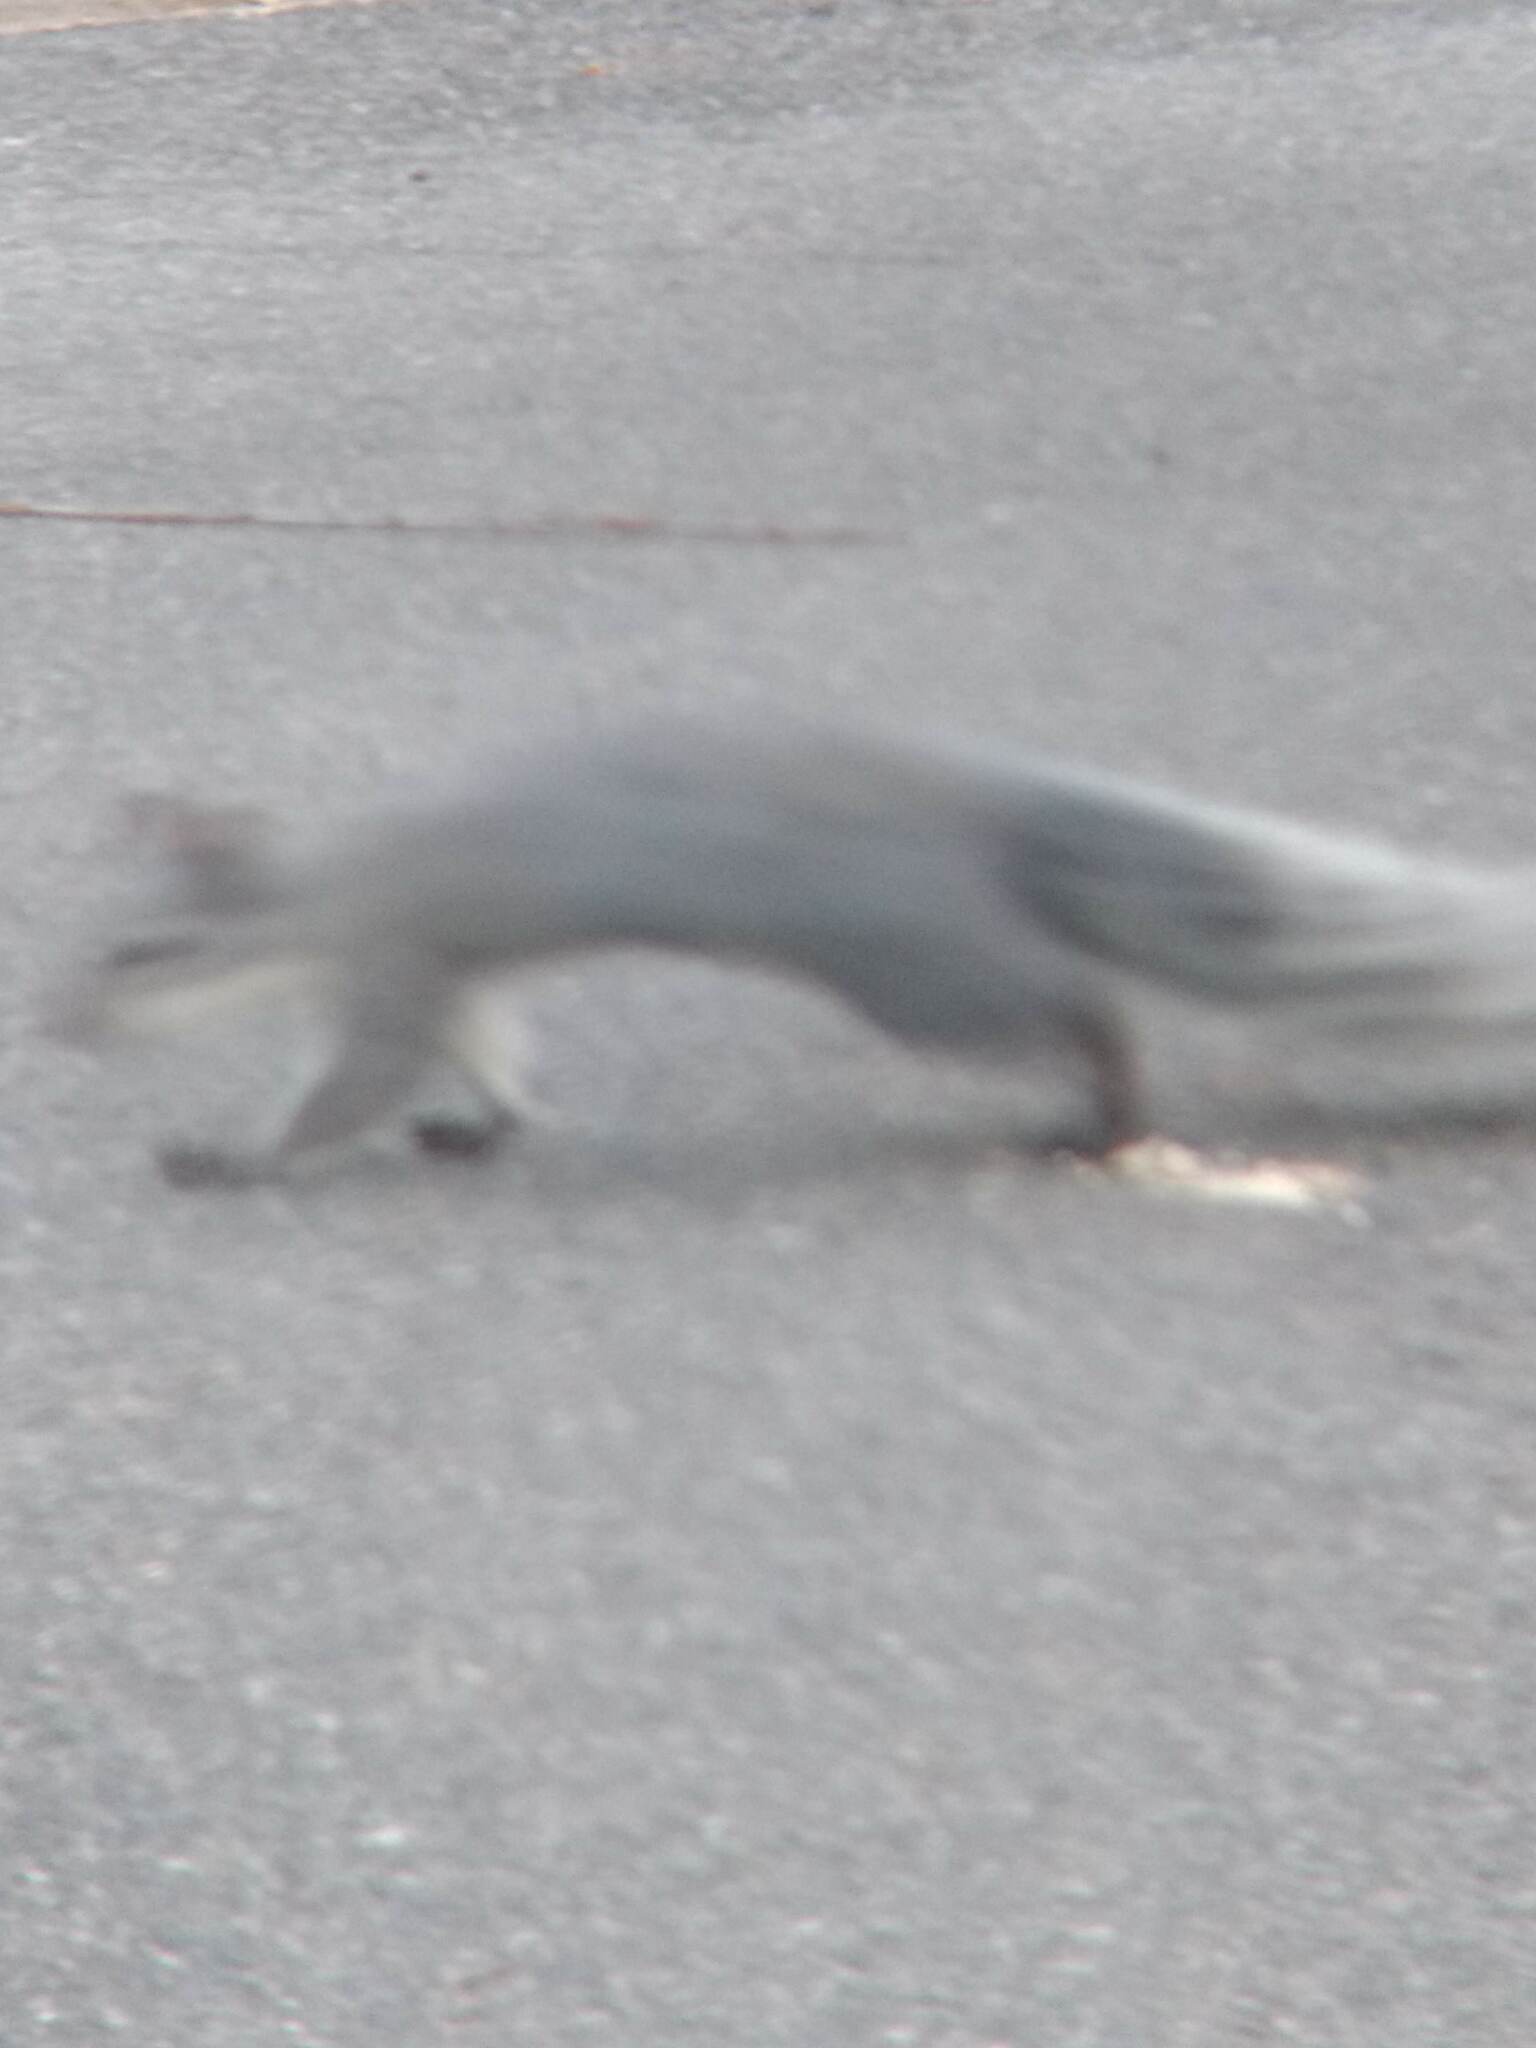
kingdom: Animalia
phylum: Chordata
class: Mammalia
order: Rodentia
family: Sciuridae
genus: Sciurus
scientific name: Sciurus griseus
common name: Western gray squirrel
